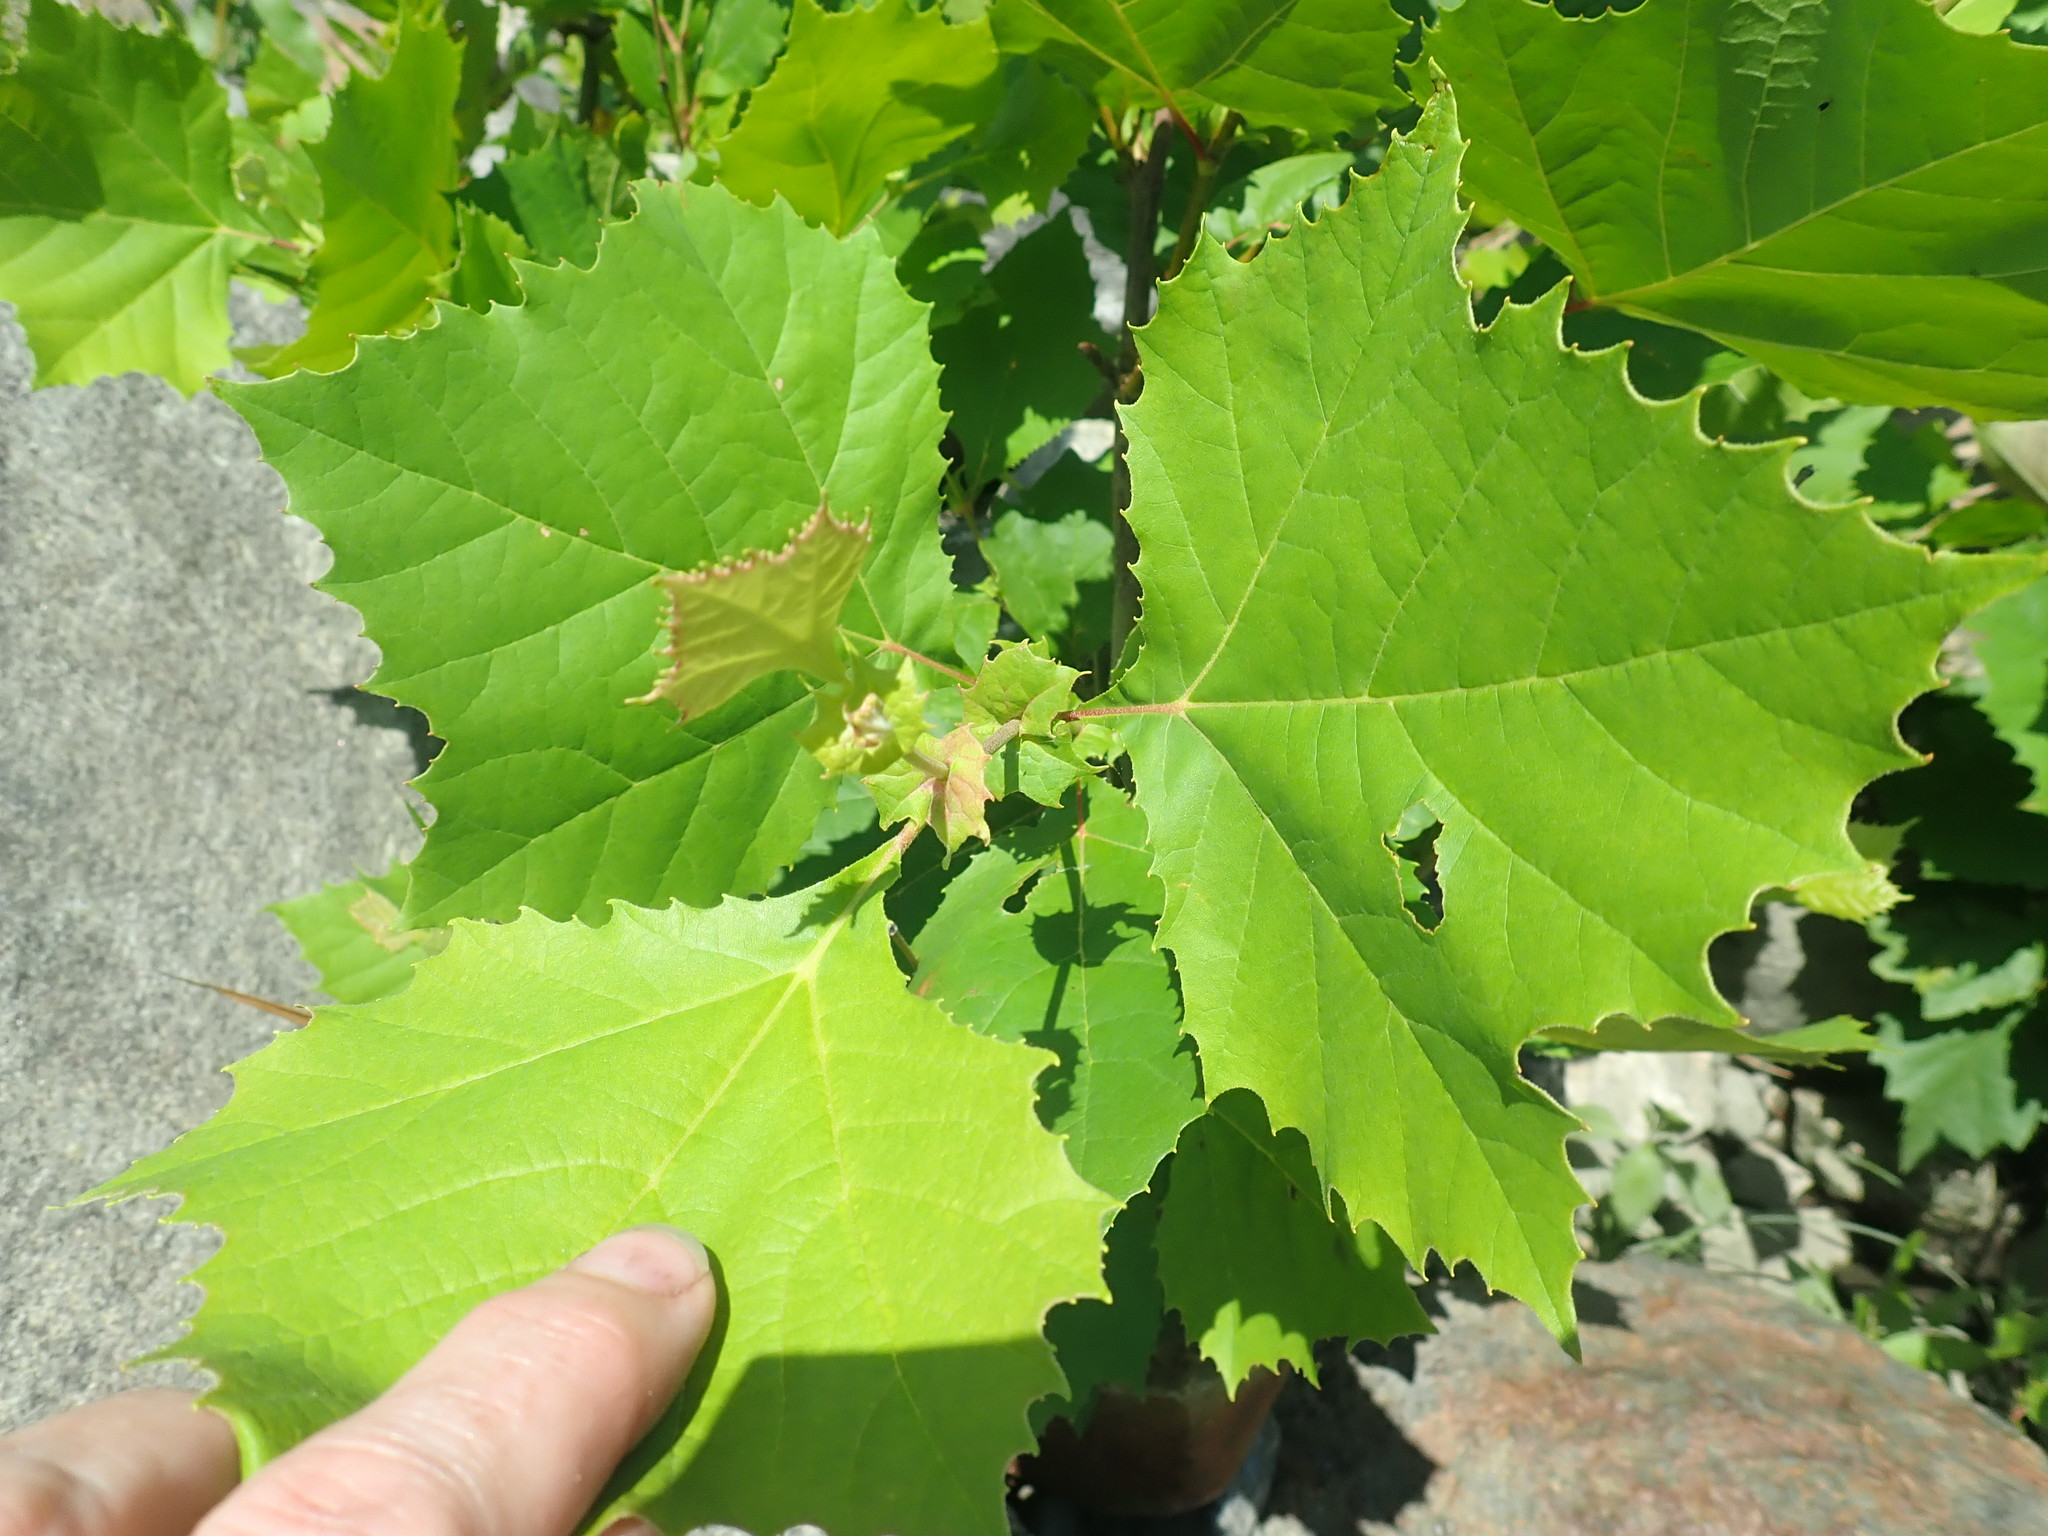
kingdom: Plantae
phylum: Tracheophyta
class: Magnoliopsida
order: Proteales
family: Platanaceae
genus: Platanus
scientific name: Platanus occidentalis
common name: American sycamore
